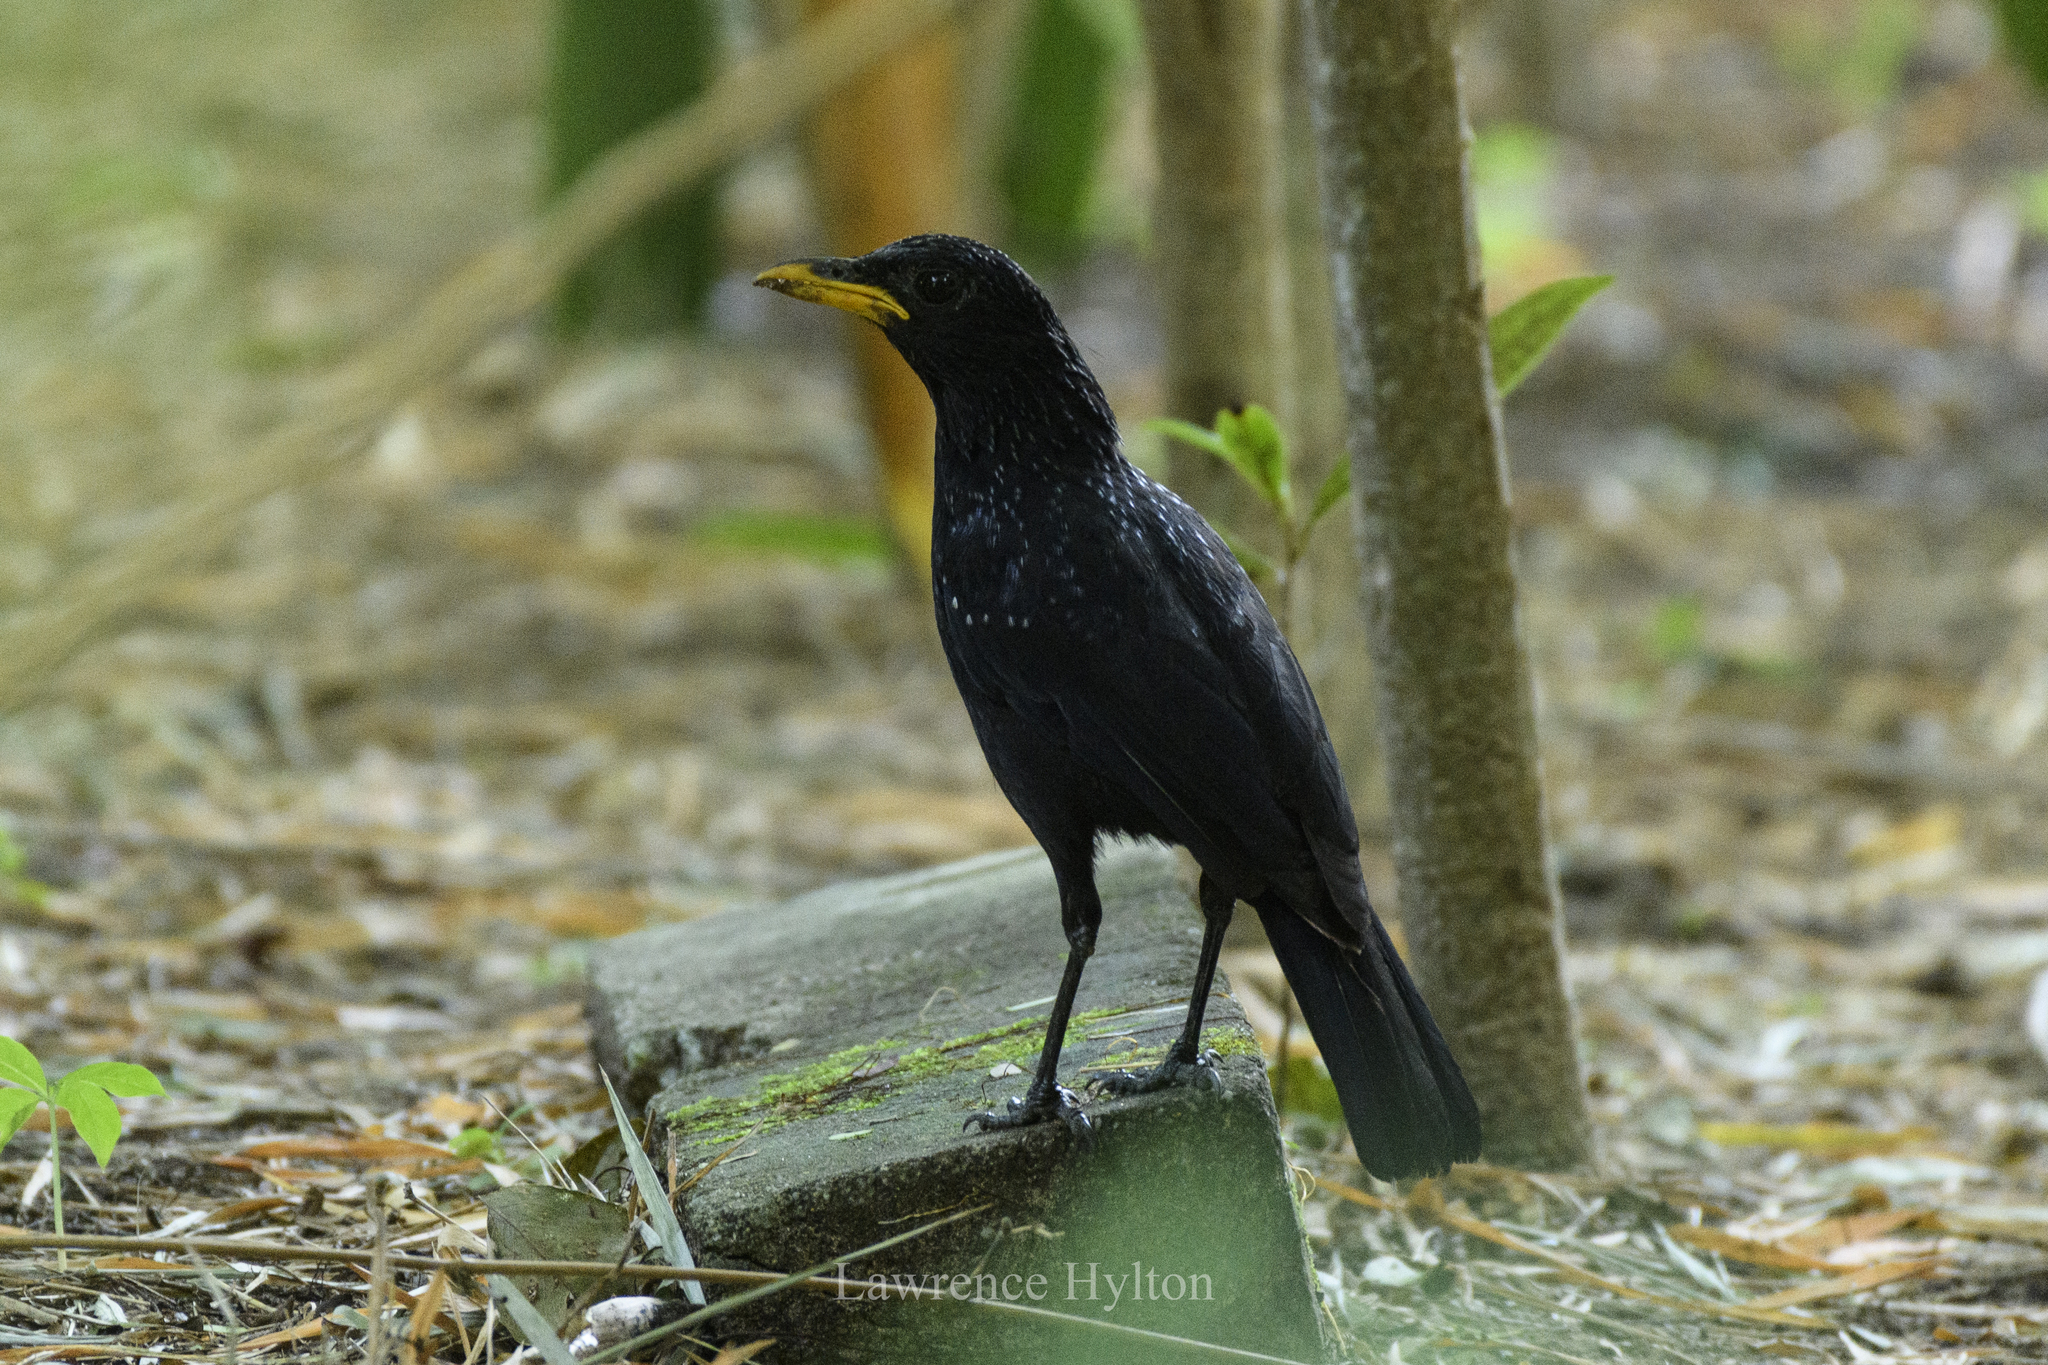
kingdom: Animalia
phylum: Chordata
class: Aves
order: Passeriformes
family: Muscicapidae
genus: Myophonus
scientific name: Myophonus caeruleus
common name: Blue whistling-thrush
